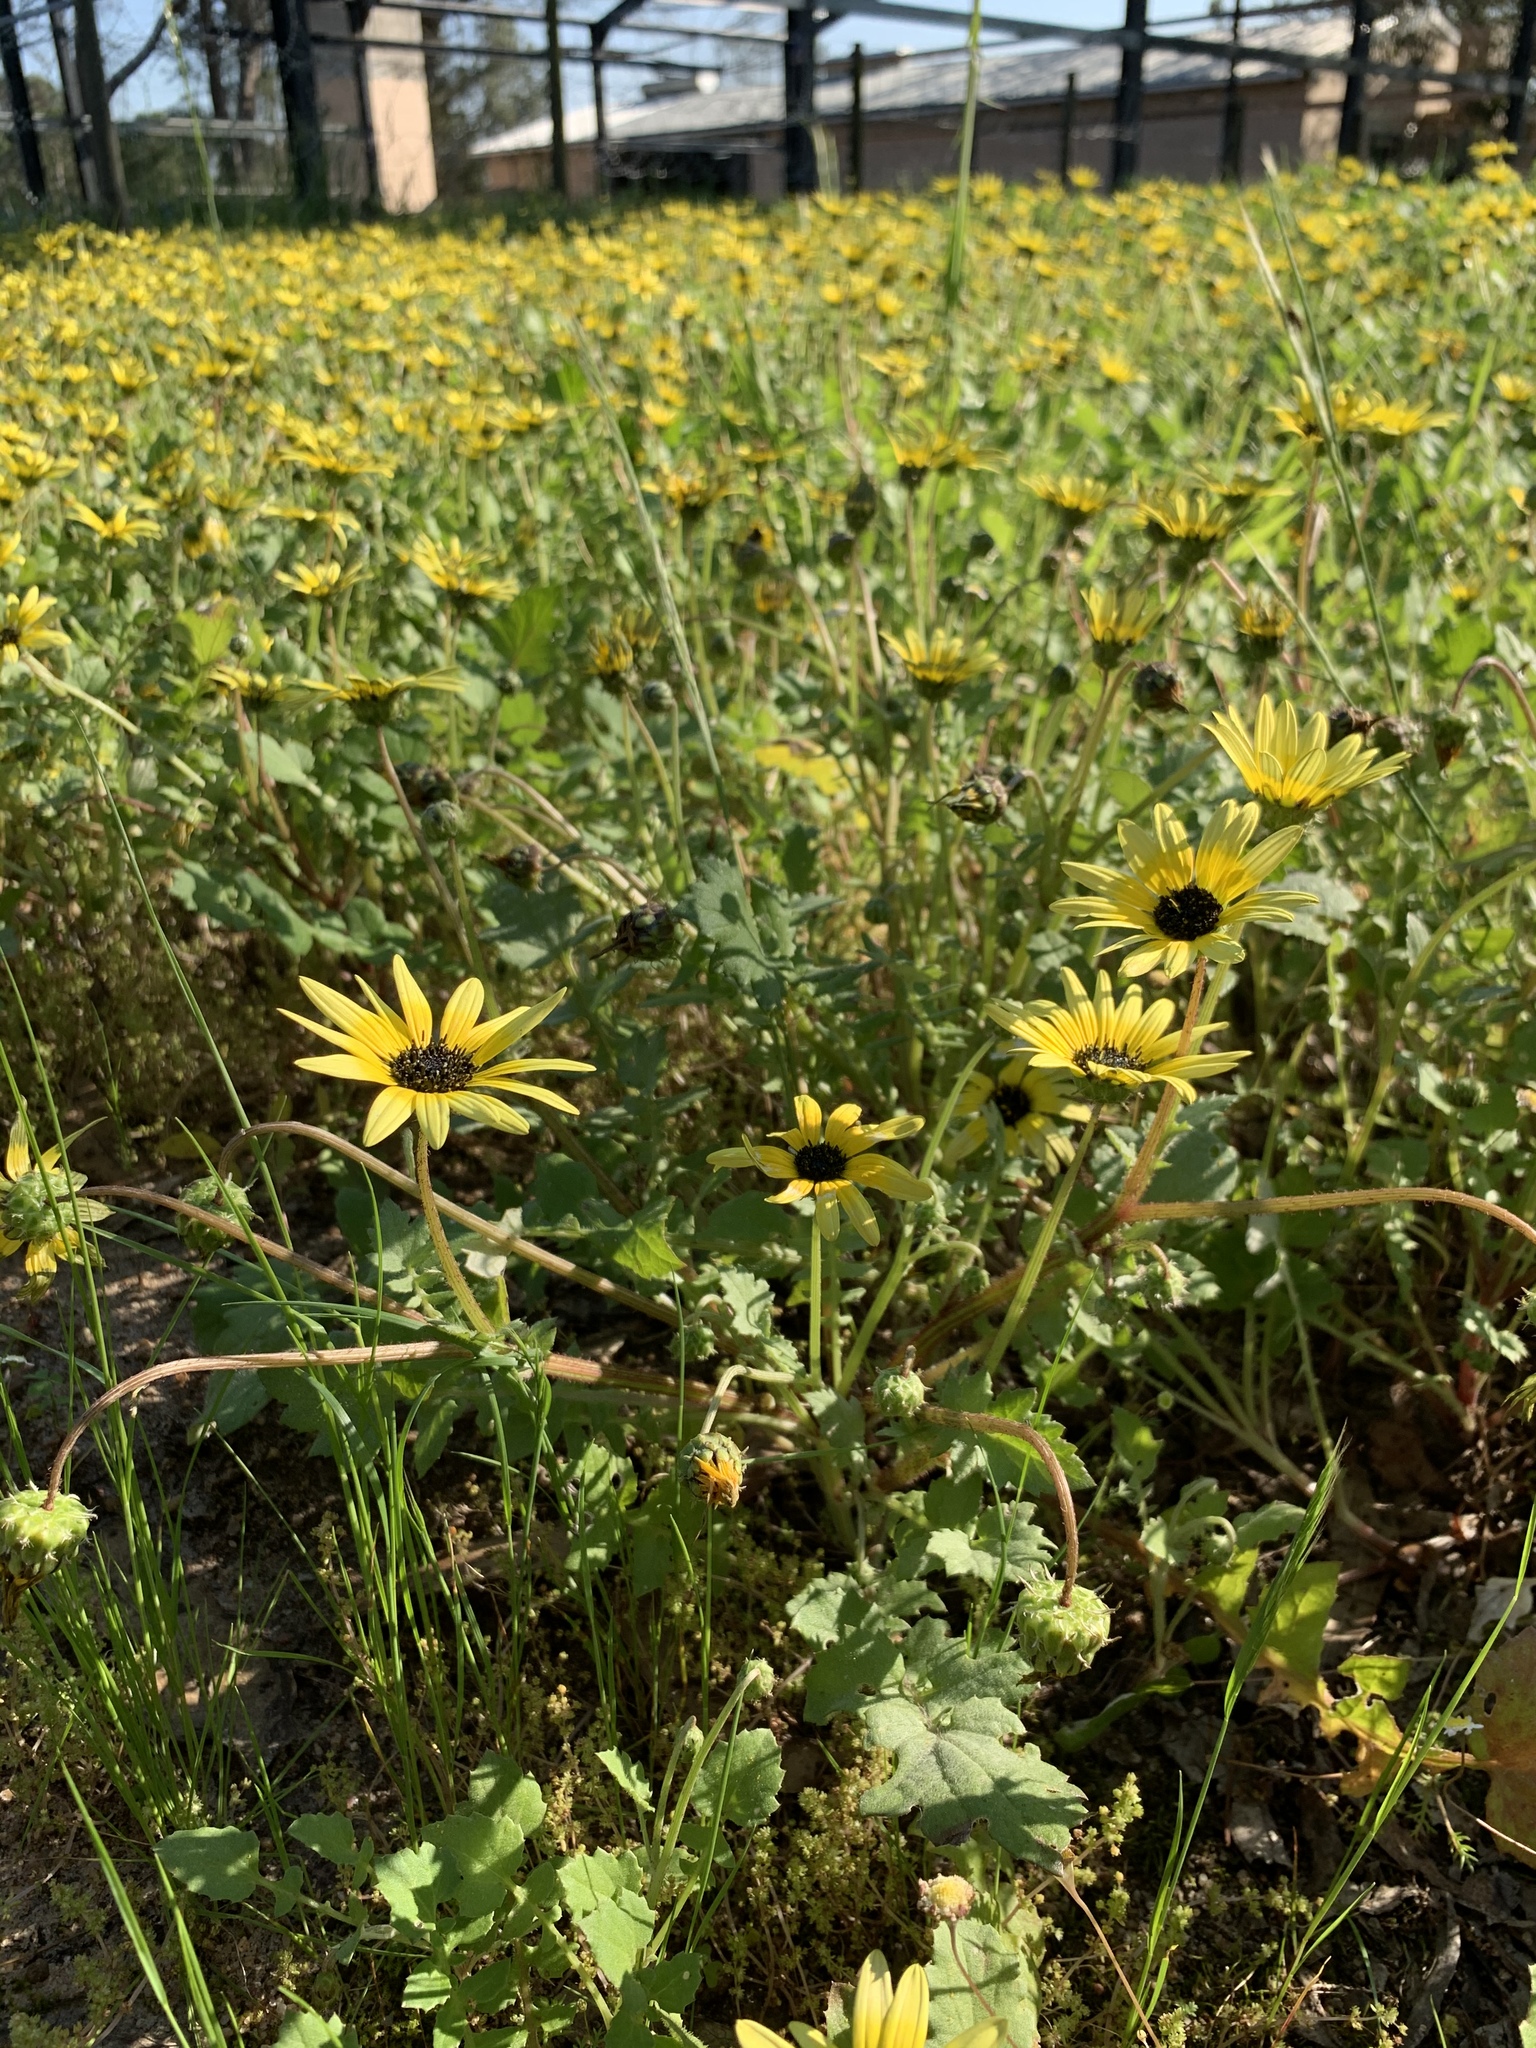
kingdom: Plantae
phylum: Tracheophyta
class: Magnoliopsida
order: Asterales
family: Asteraceae
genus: Arctotheca
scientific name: Arctotheca calendula
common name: Capeweed
